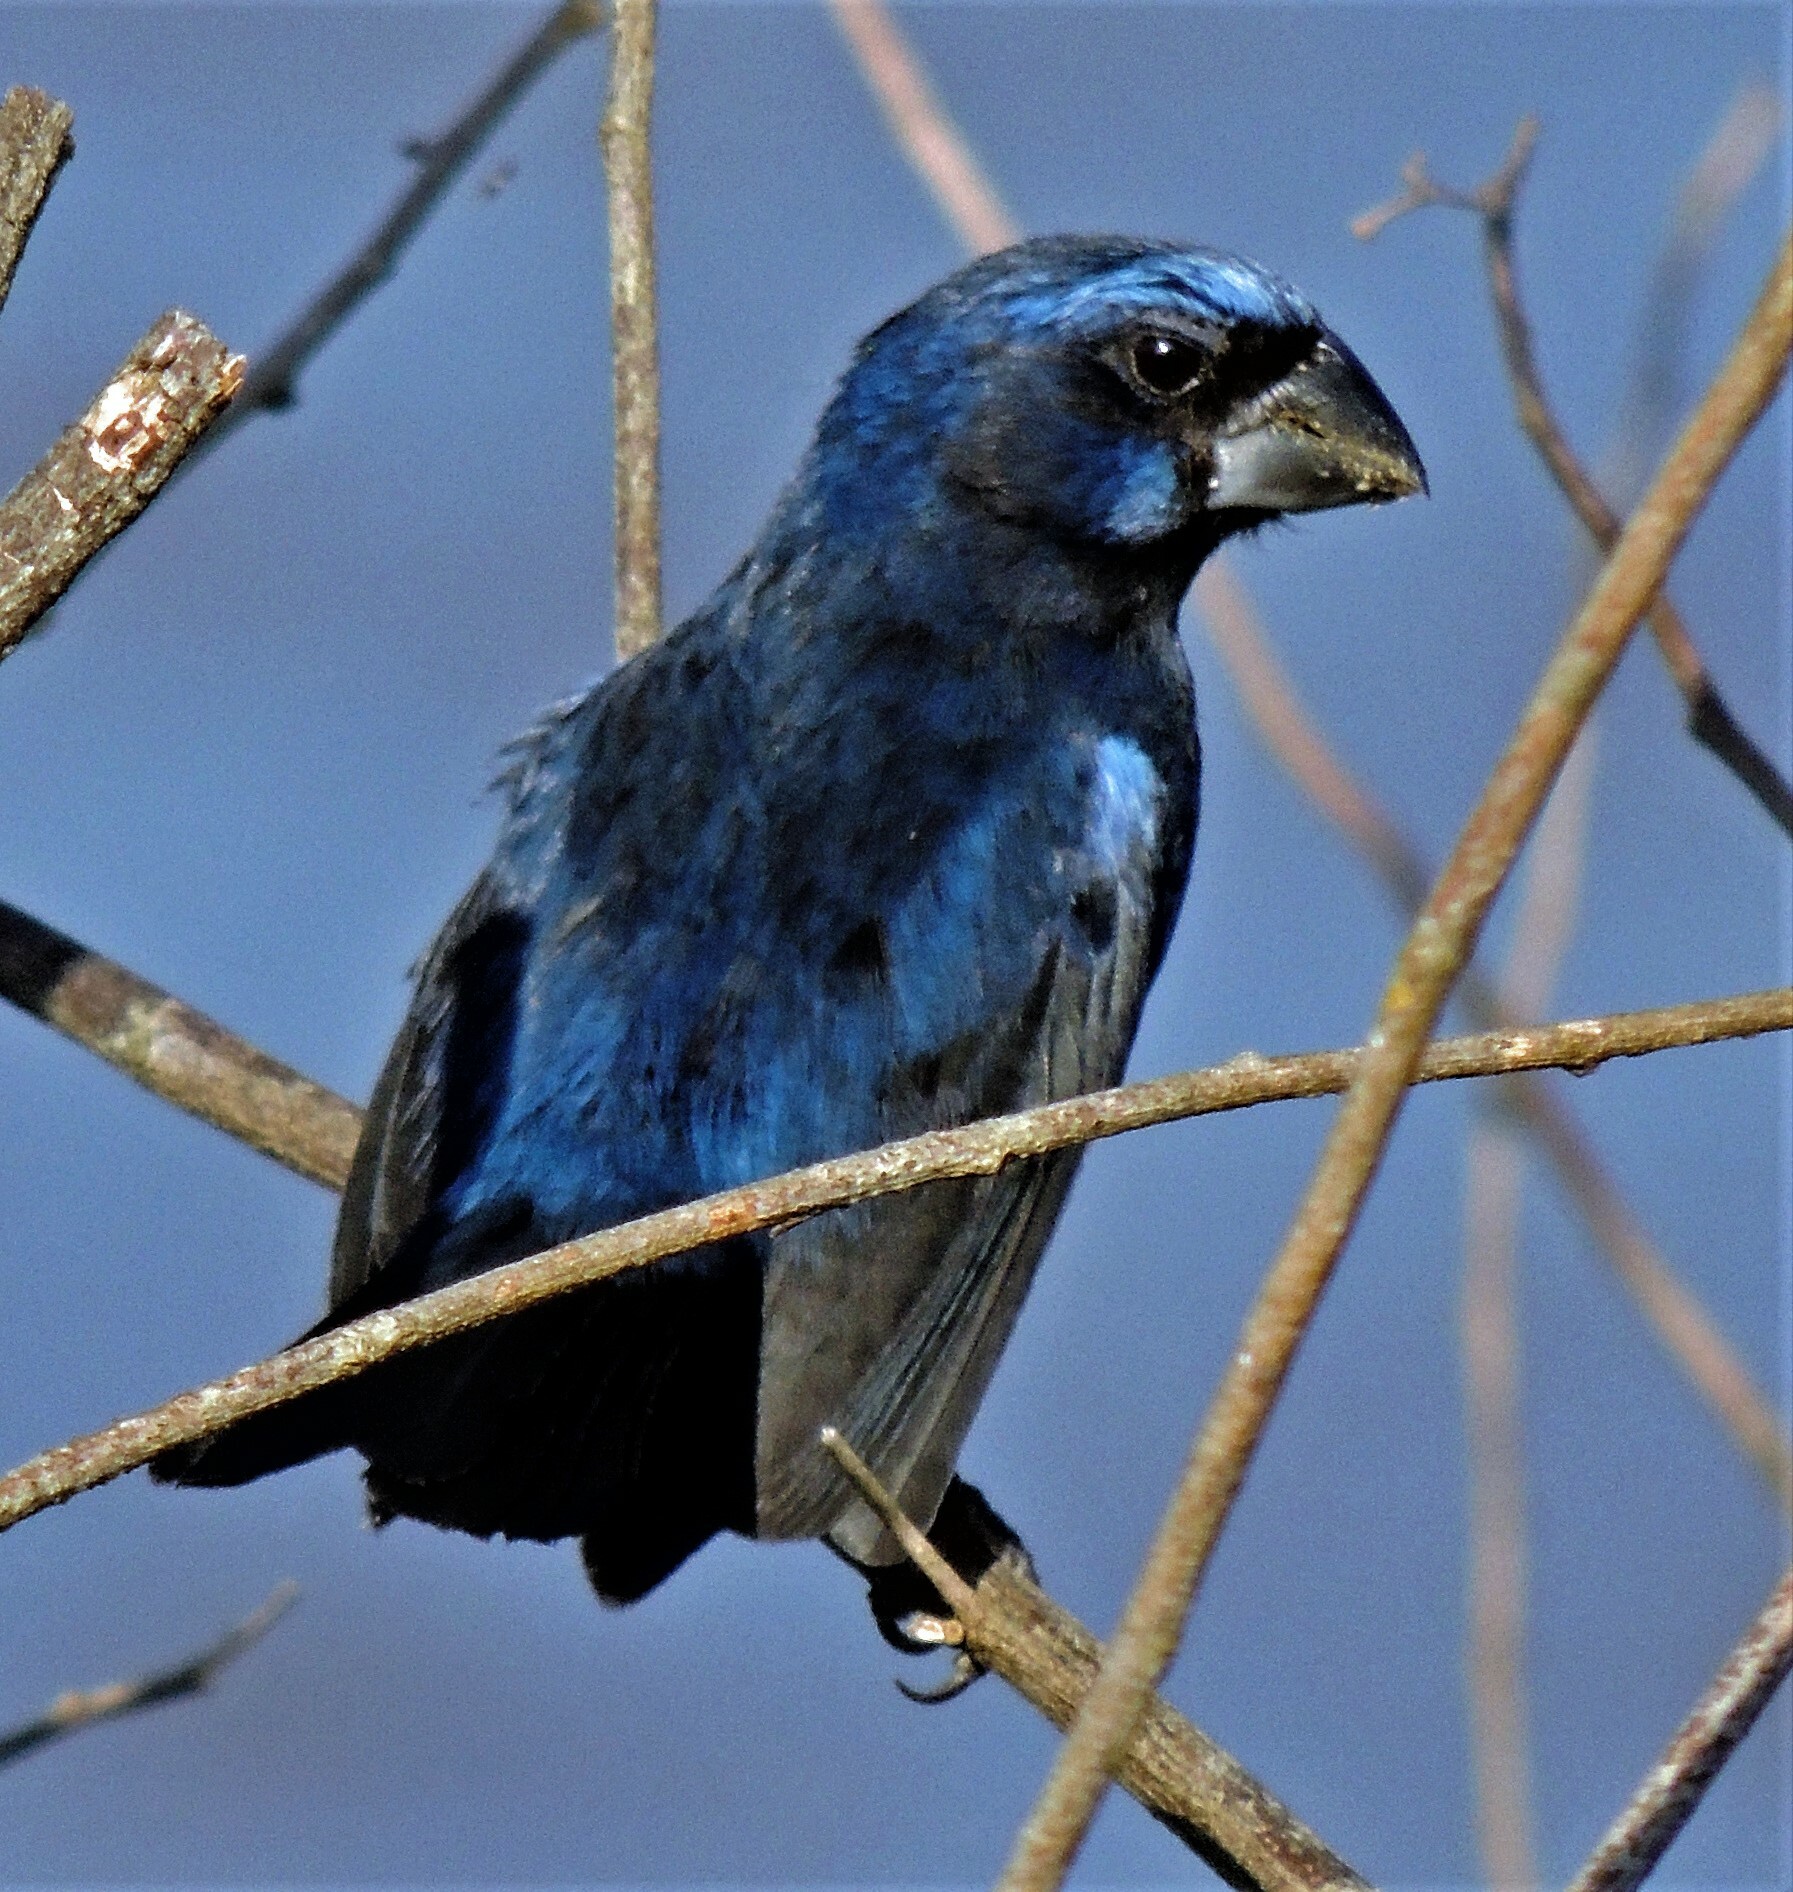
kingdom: Animalia
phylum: Chordata
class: Aves
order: Passeriformes
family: Cardinalidae
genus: Cyanoloxia
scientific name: Cyanoloxia brissonii
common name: Ultramarine grosbeak
